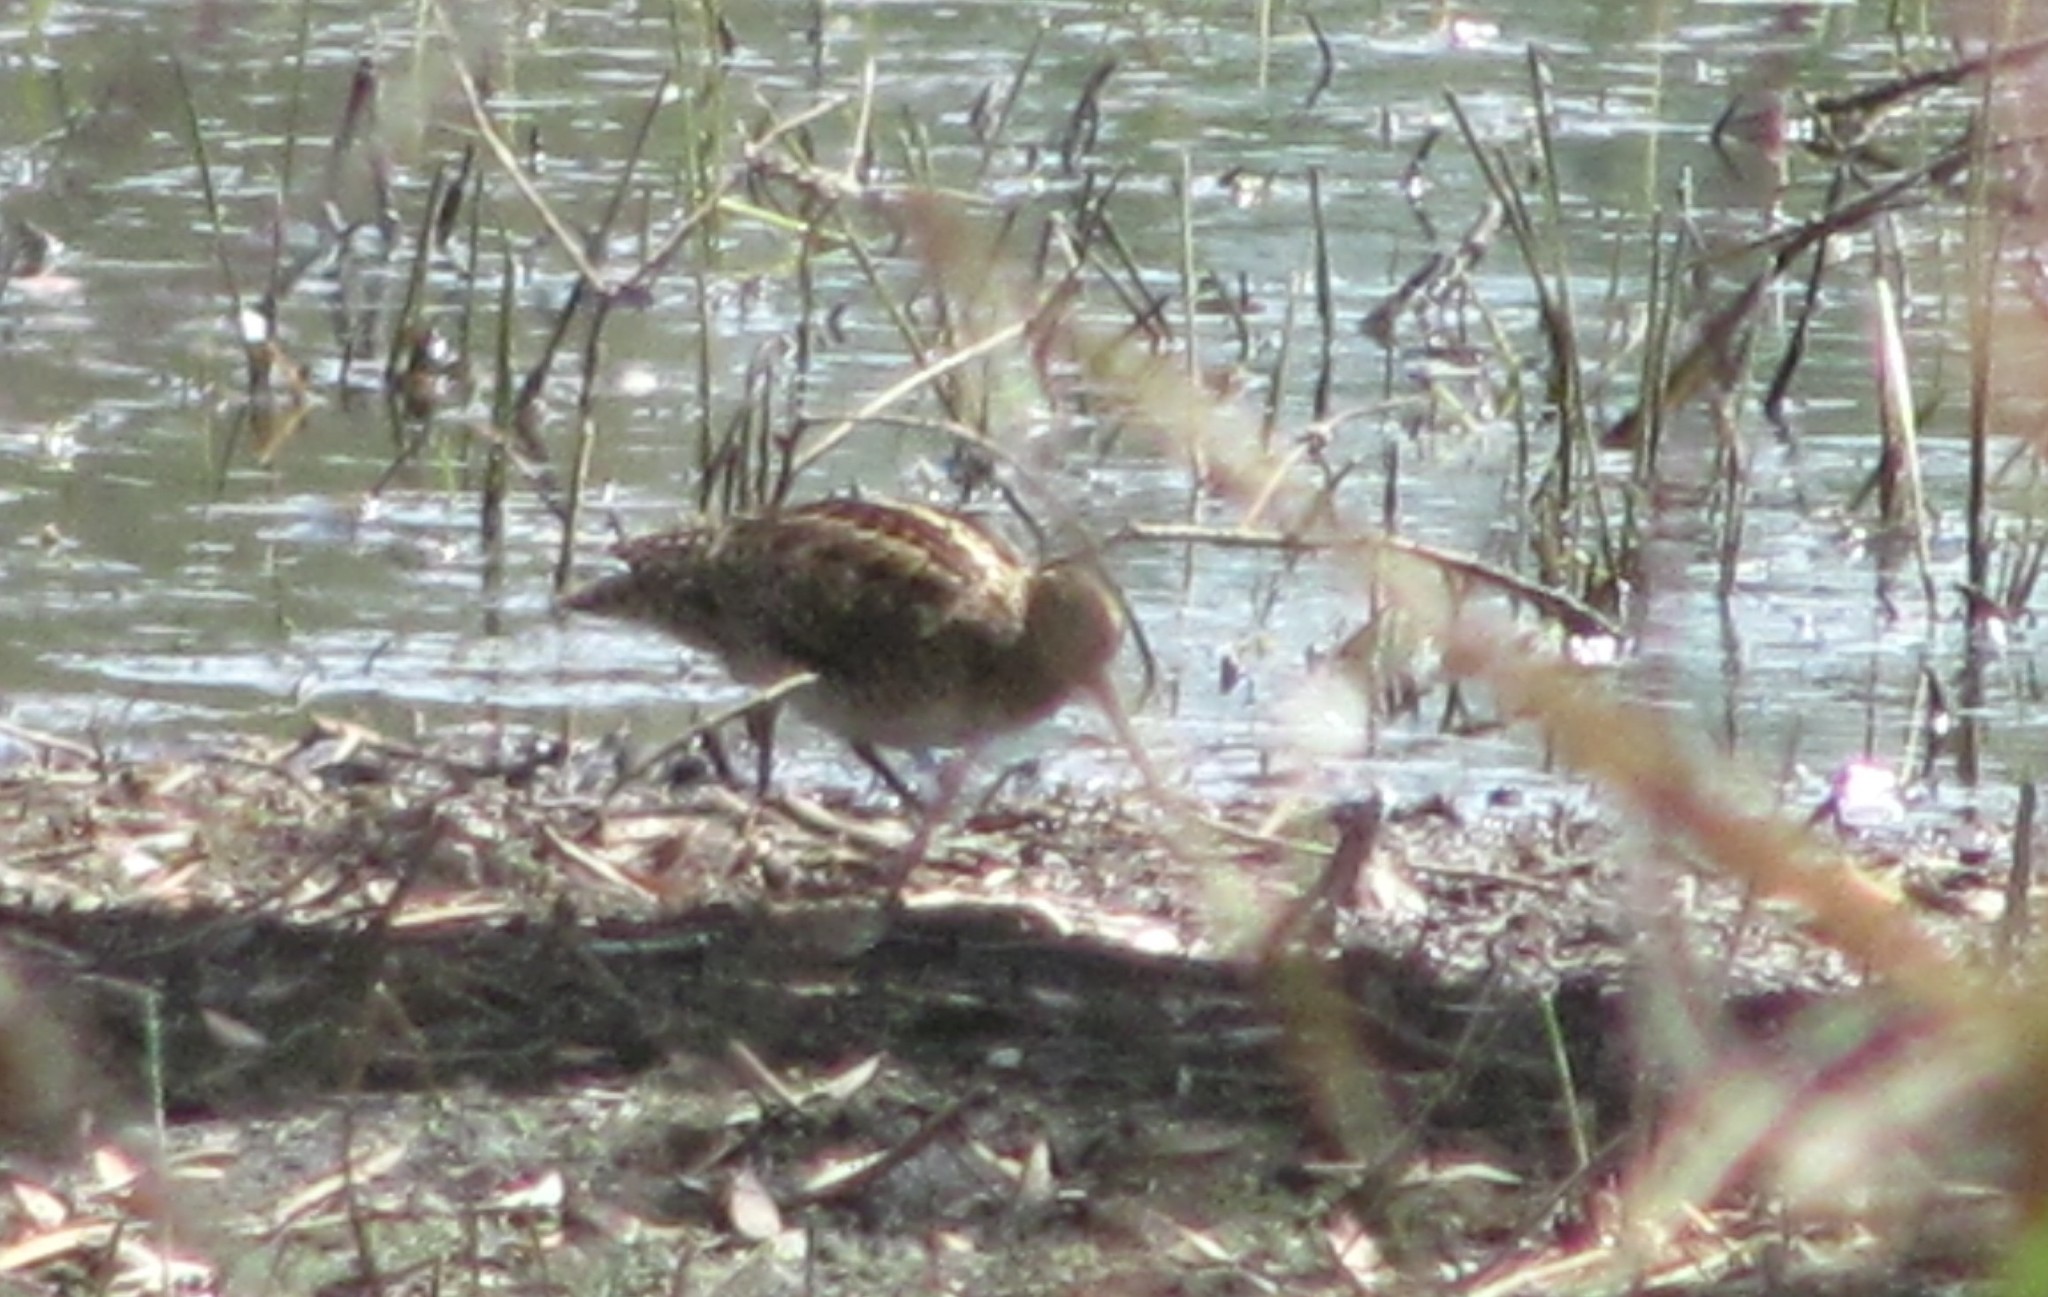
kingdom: Animalia
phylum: Chordata
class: Aves
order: Charadriiformes
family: Scolopacidae
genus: Gallinago
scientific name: Gallinago hardwickii
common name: Latham's snipe
